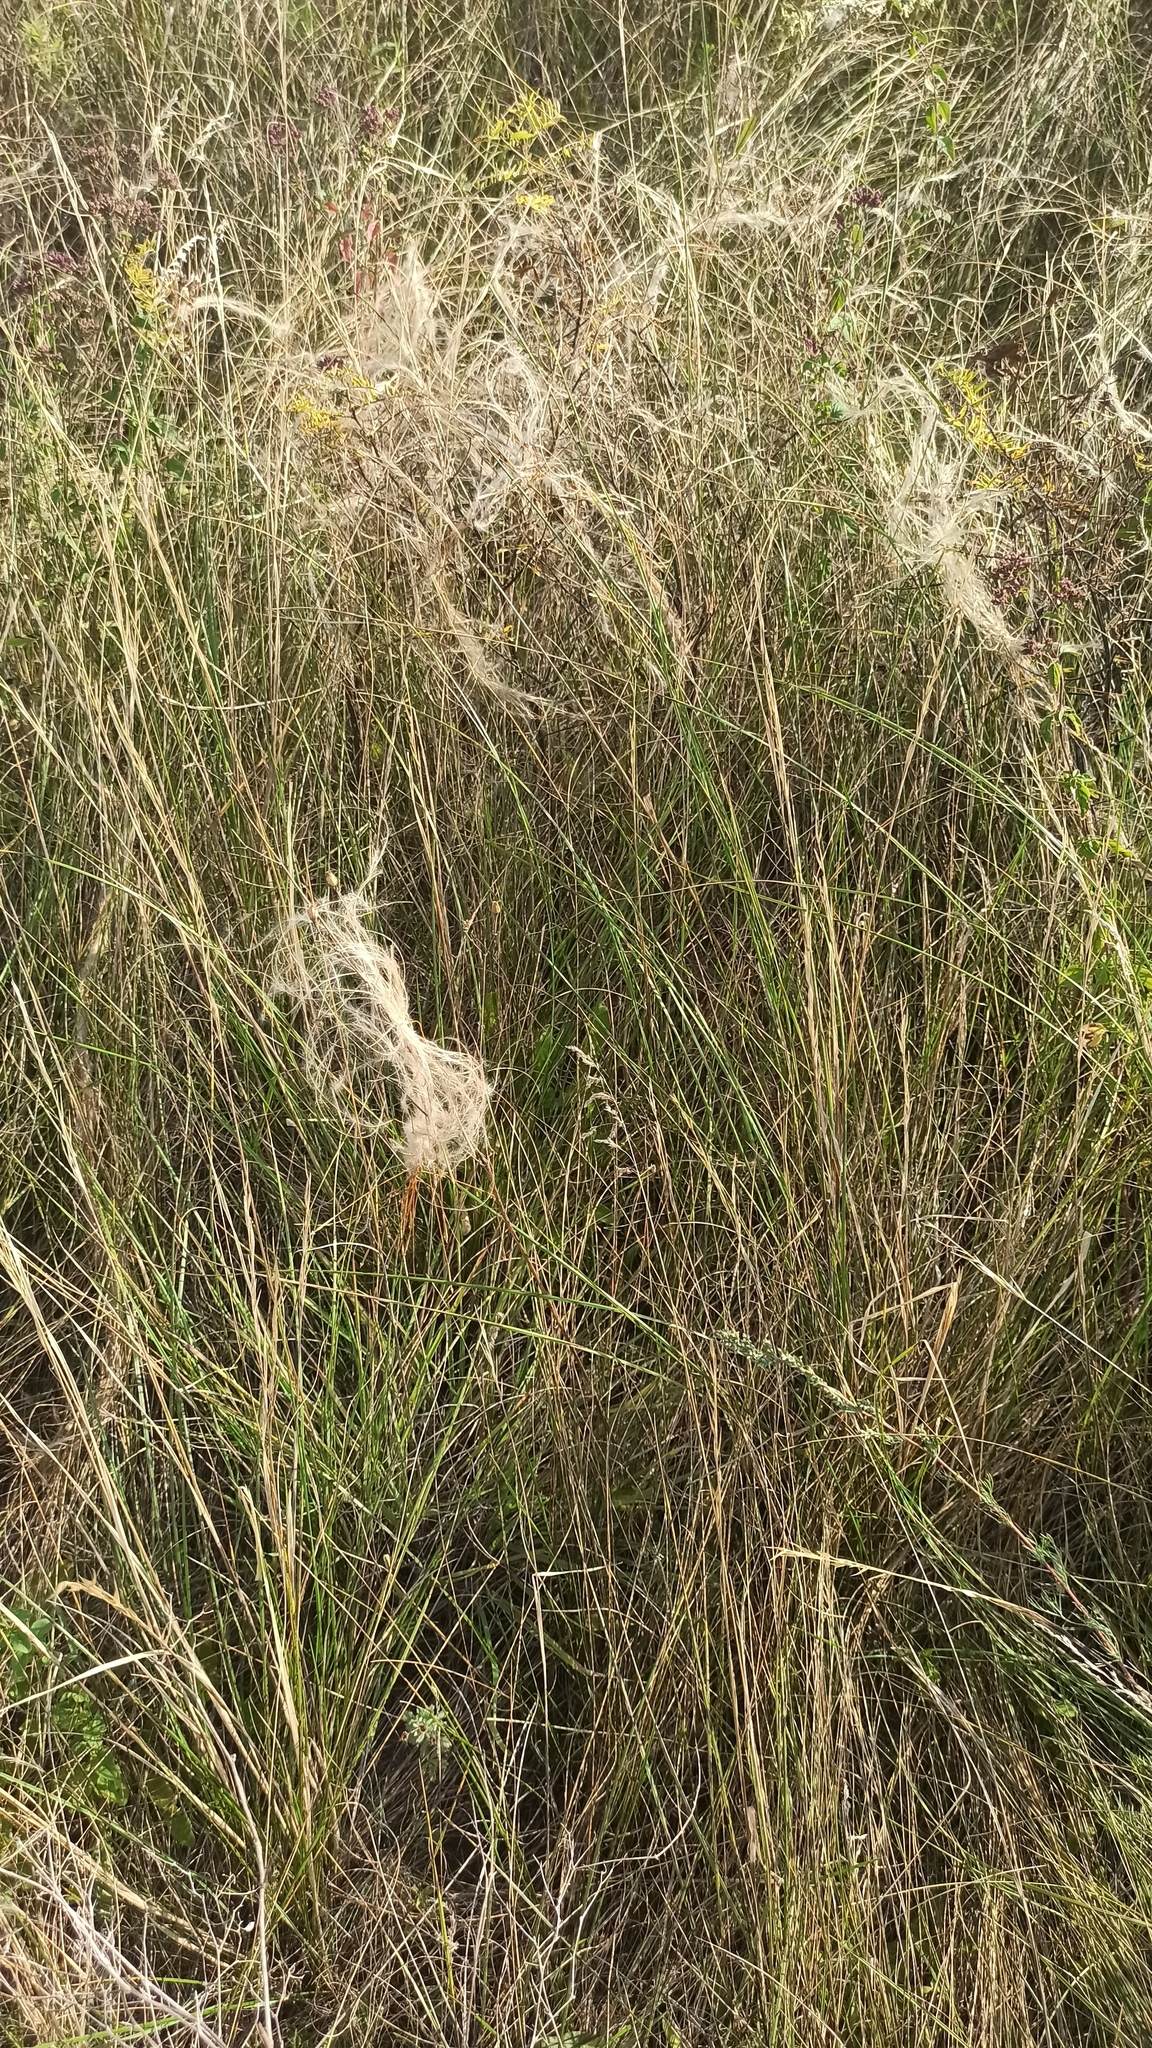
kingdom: Plantae
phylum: Tracheophyta
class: Liliopsida
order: Poales
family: Poaceae
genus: Stipa
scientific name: Stipa pennata
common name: European feather grass
